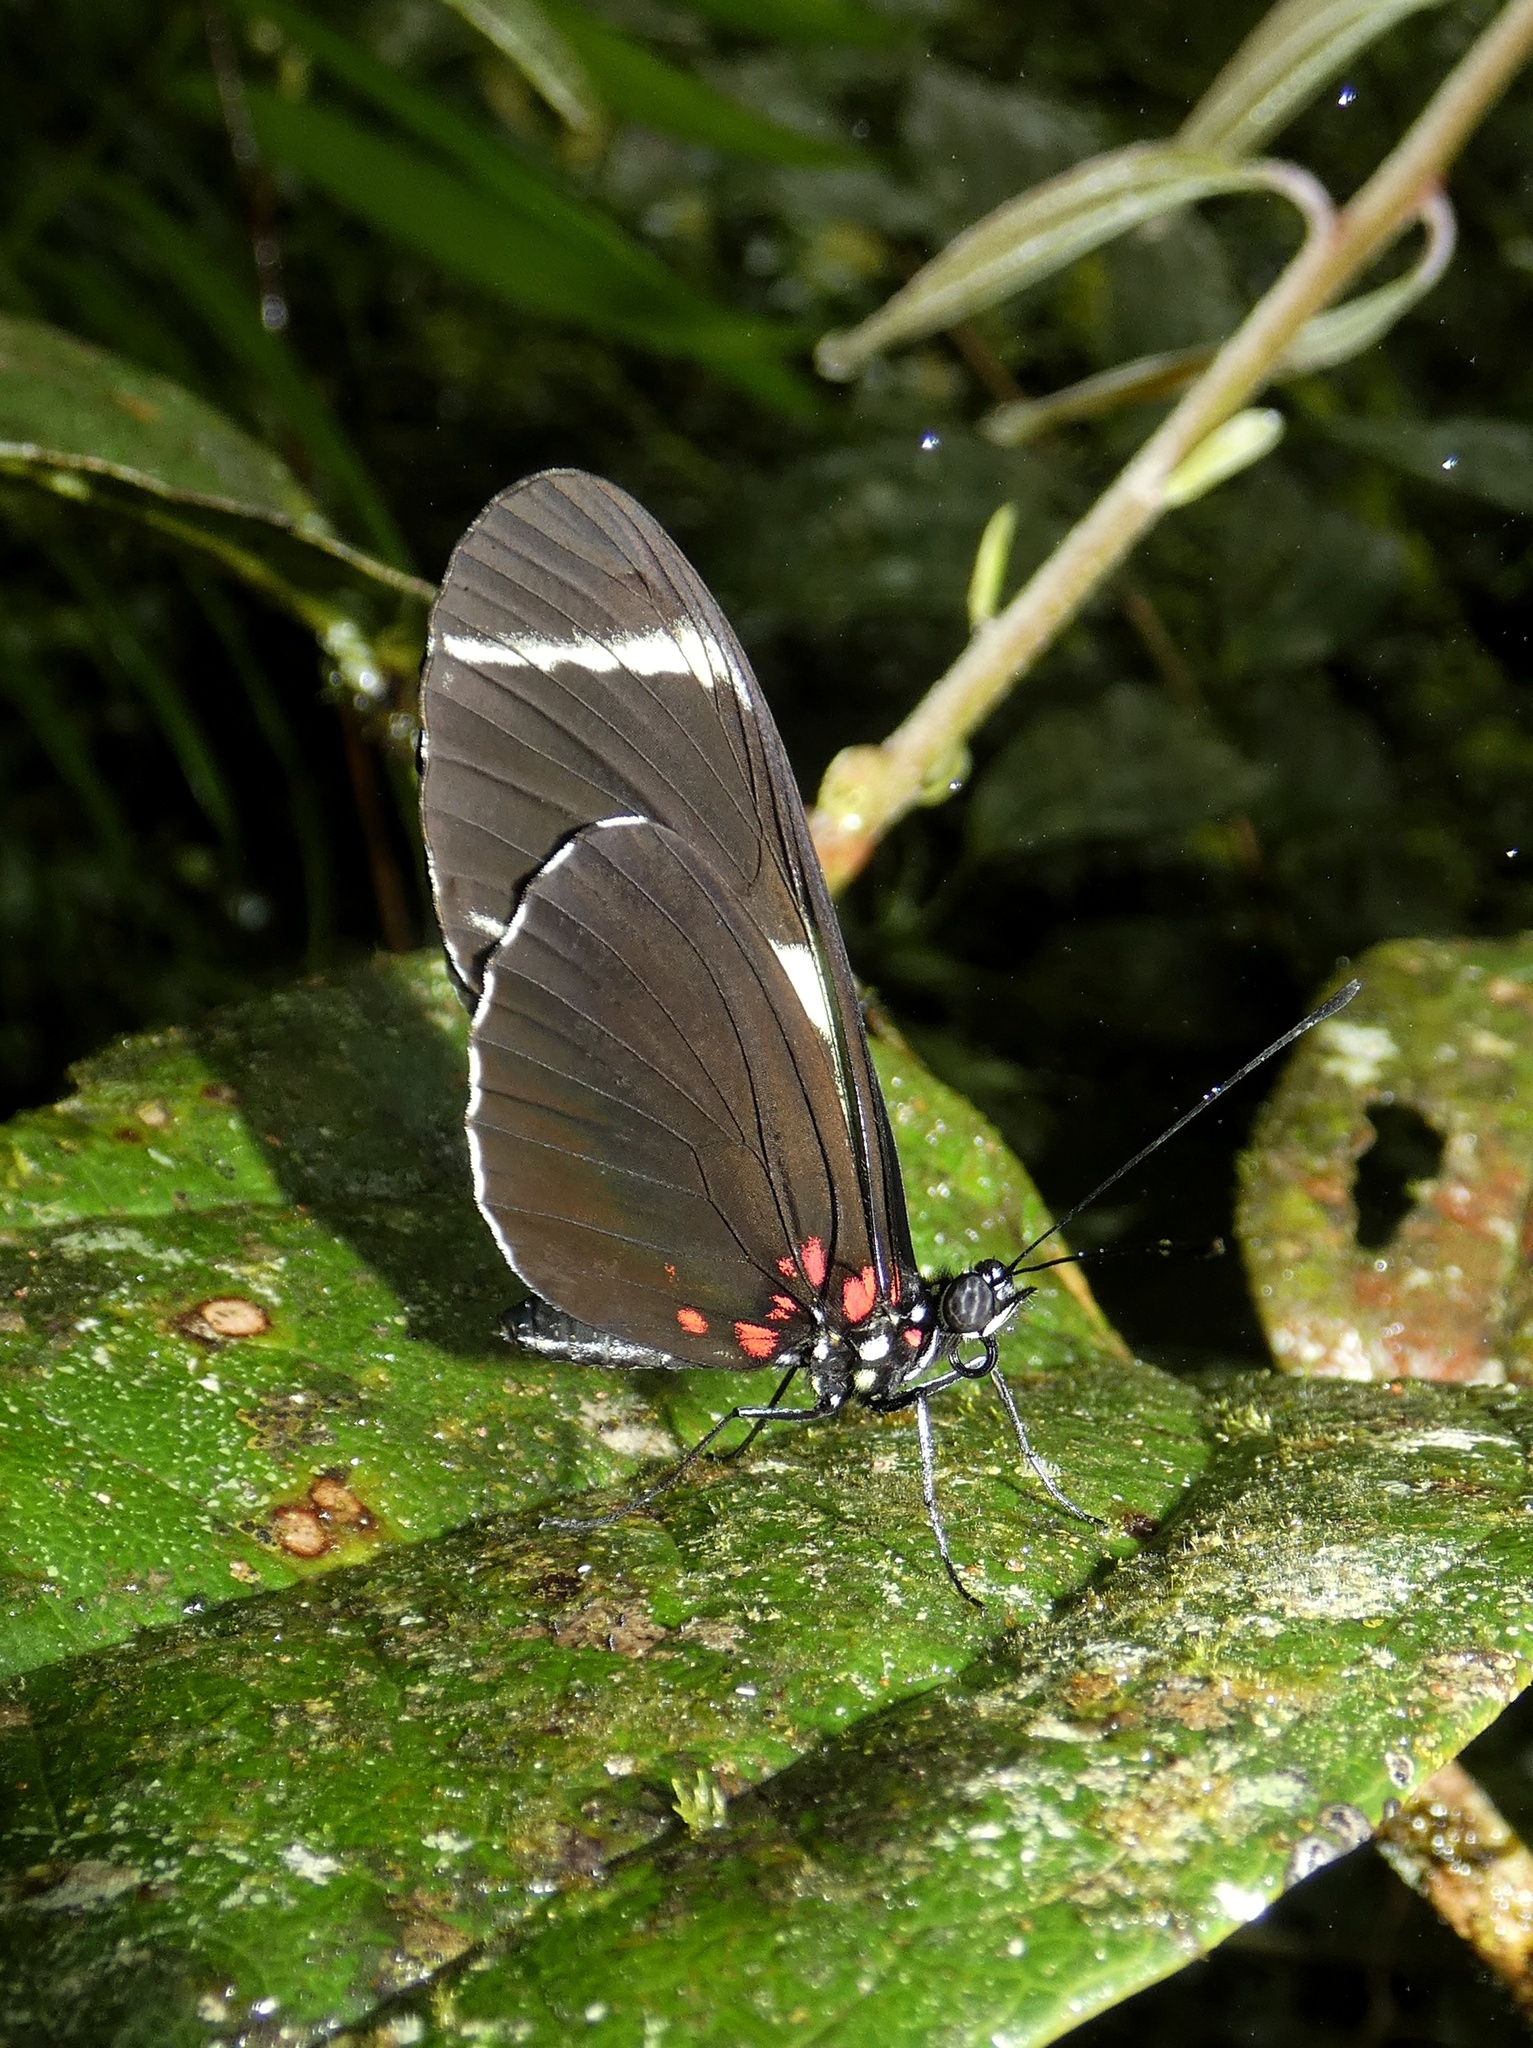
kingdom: Animalia
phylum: Arthropoda
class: Insecta
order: Lepidoptera
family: Nymphalidae
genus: Heliconius
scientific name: Heliconius sara
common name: Sara longwing
